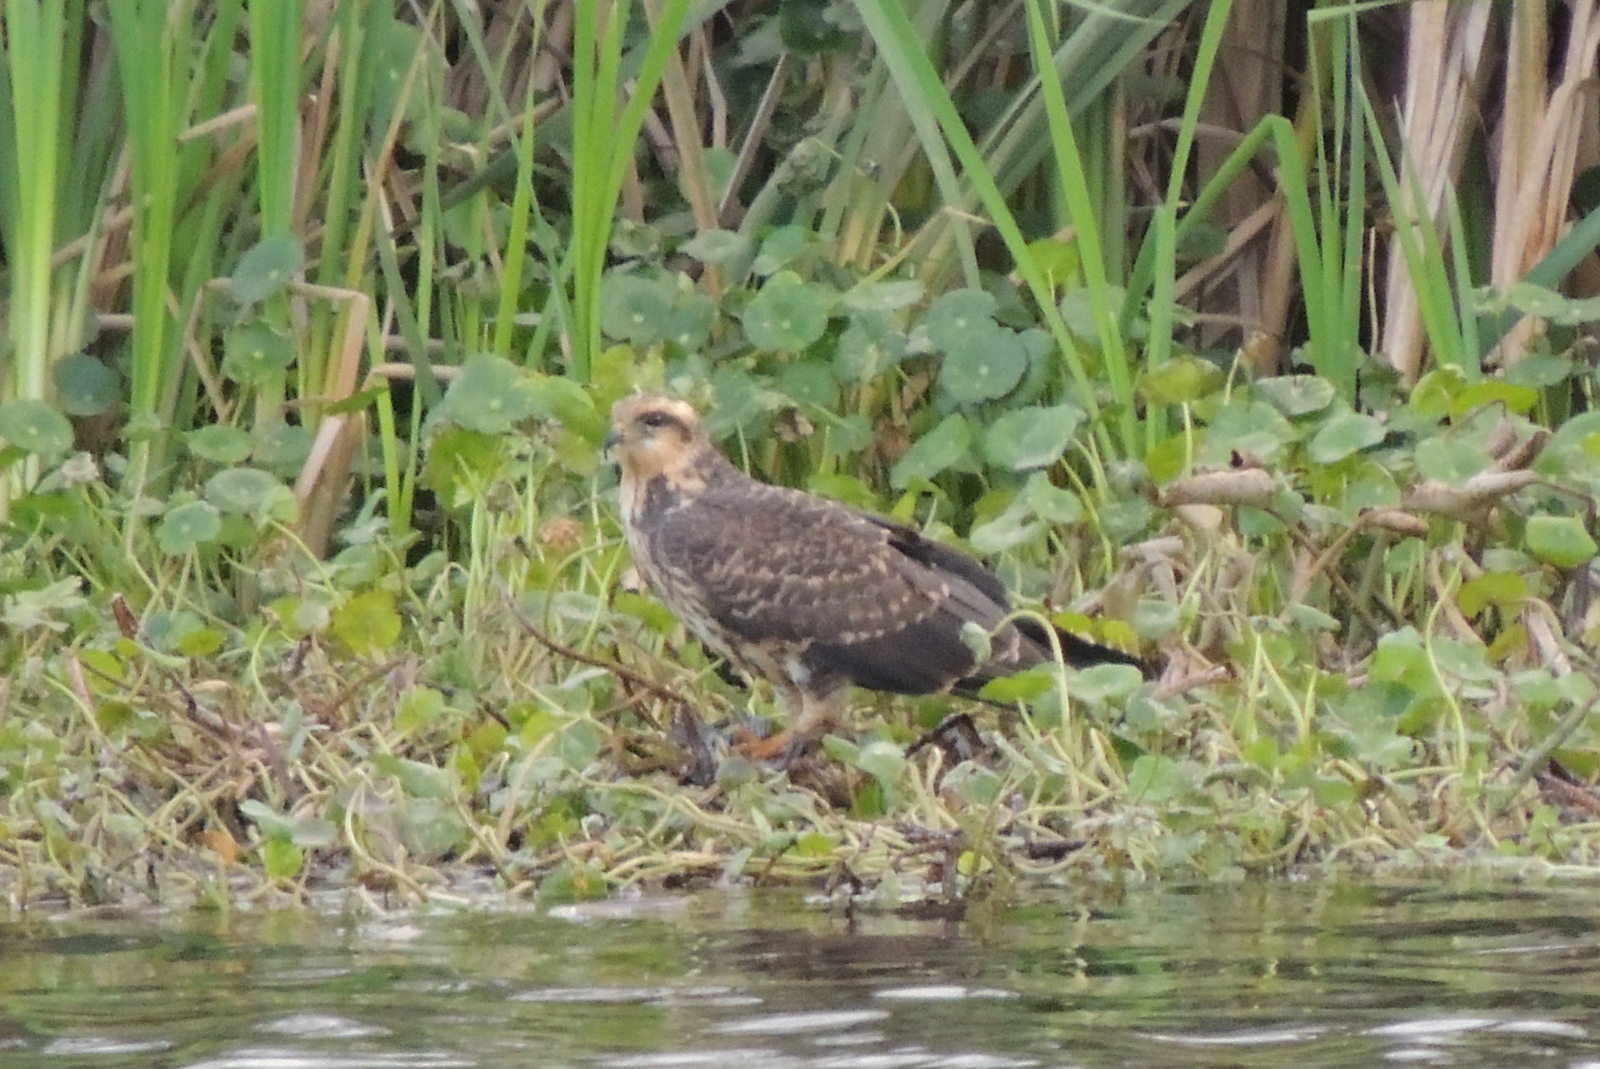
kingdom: Animalia
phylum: Chordata
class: Aves
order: Accipitriformes
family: Accipitridae
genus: Rostrhamus
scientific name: Rostrhamus sociabilis
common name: Snail kite
